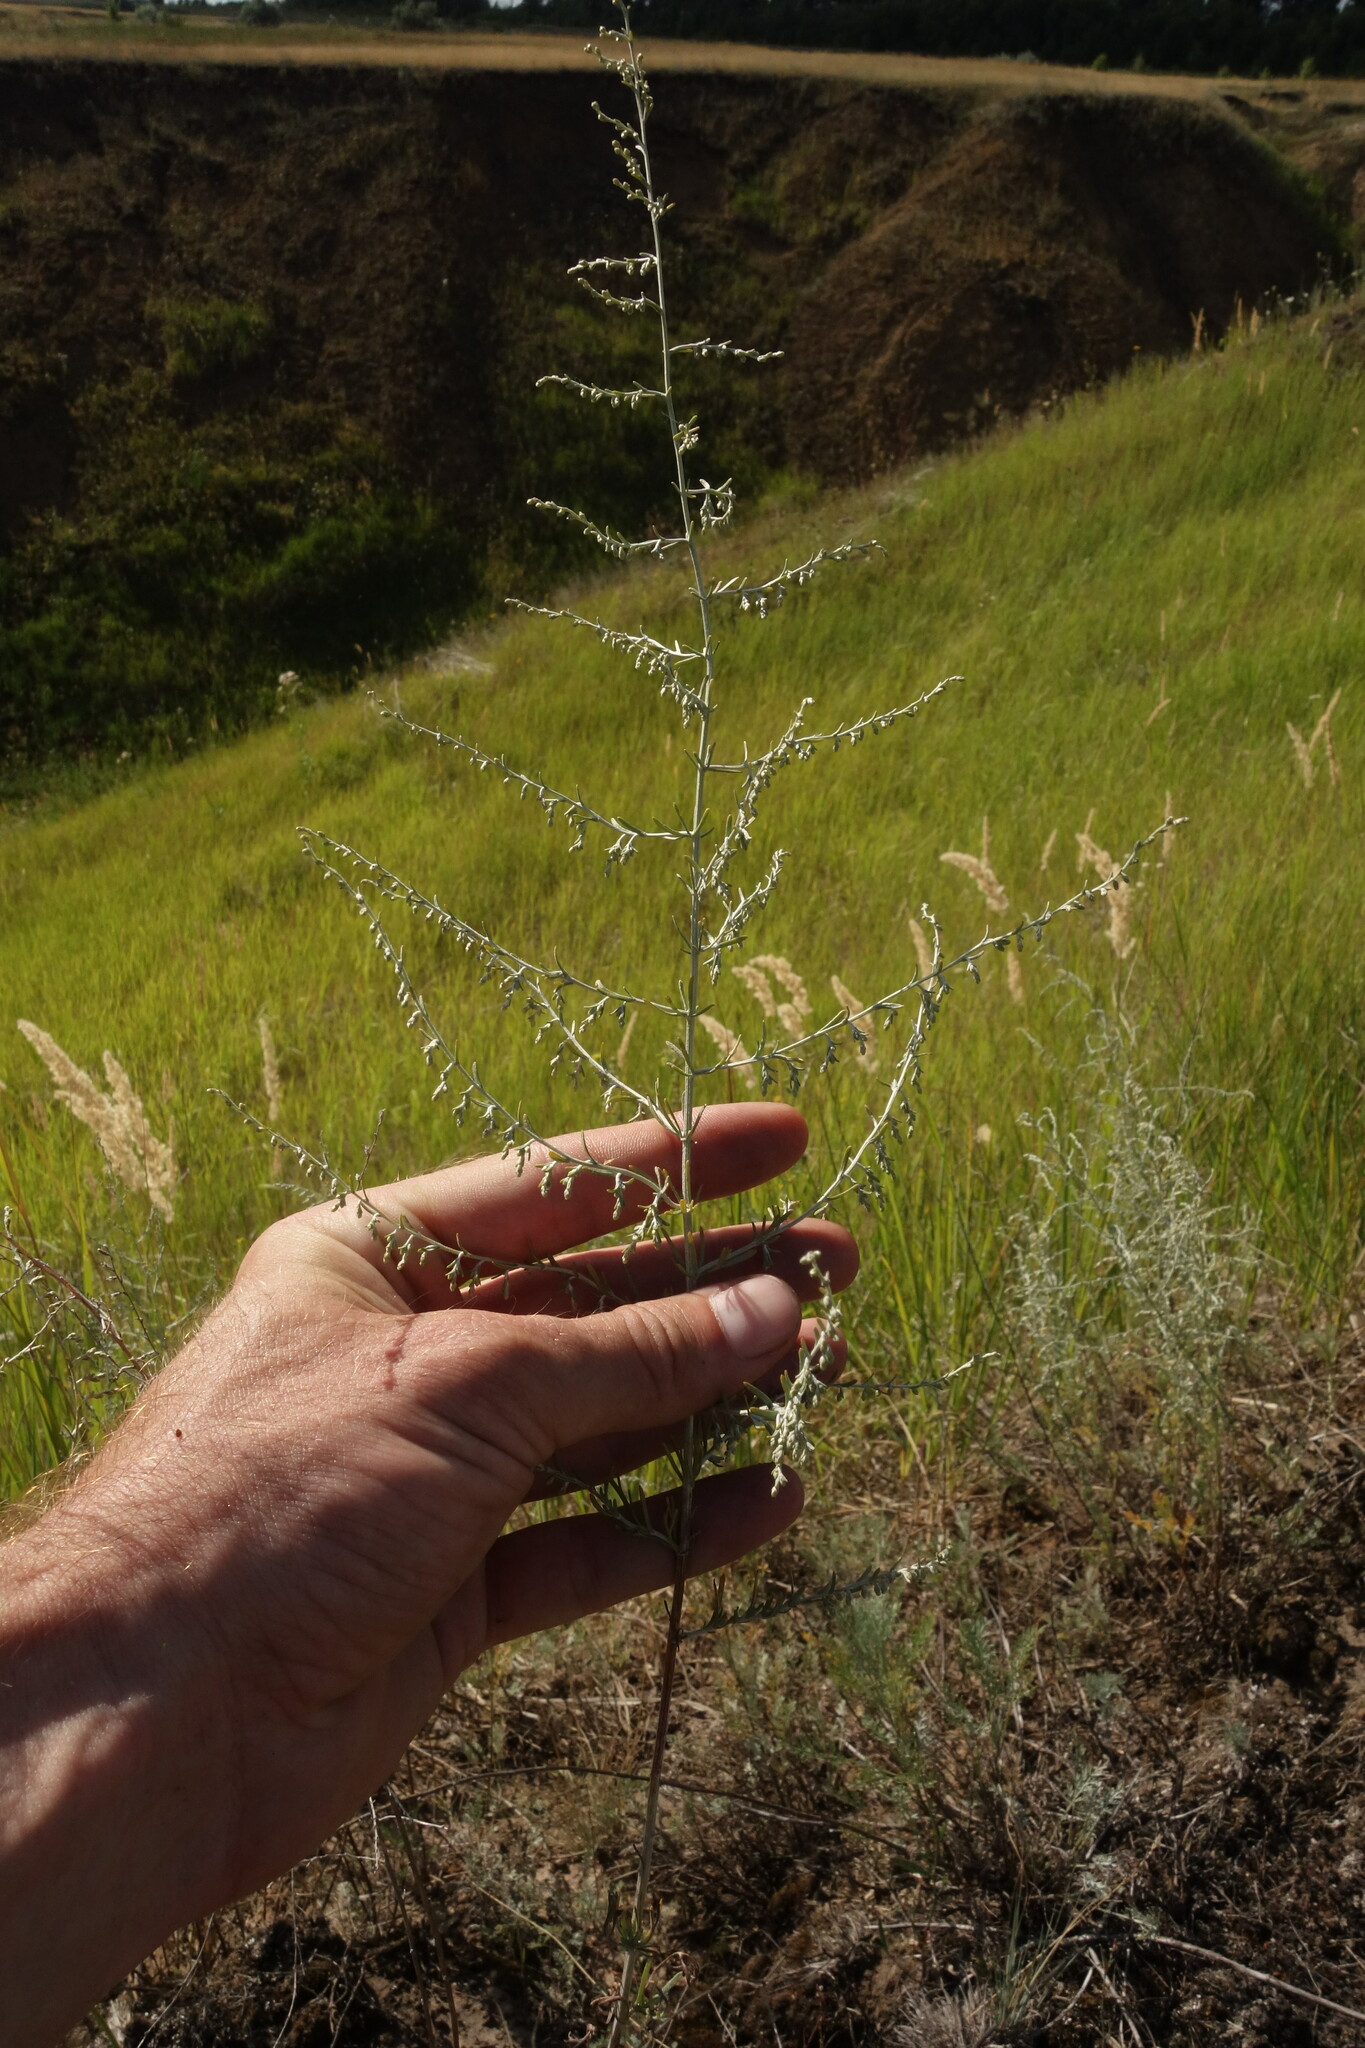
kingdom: Plantae
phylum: Tracheophyta
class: Magnoliopsida
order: Asterales
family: Asteraceae
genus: Artemisia
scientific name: Artemisia santonicum
